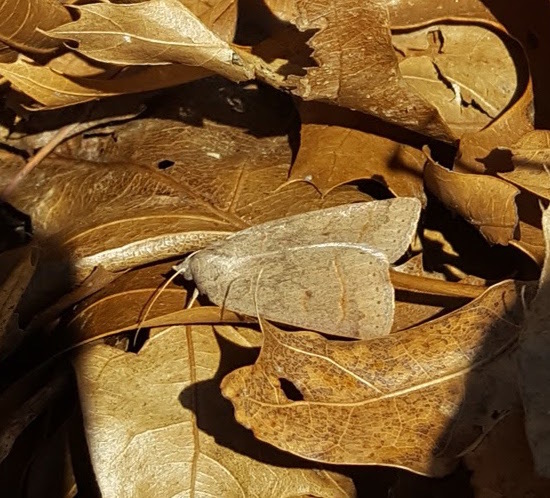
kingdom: Animalia
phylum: Arthropoda
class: Insecta
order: Lepidoptera
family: Erebidae
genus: Phoberia
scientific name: Phoberia atomaris
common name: Common oak moth
